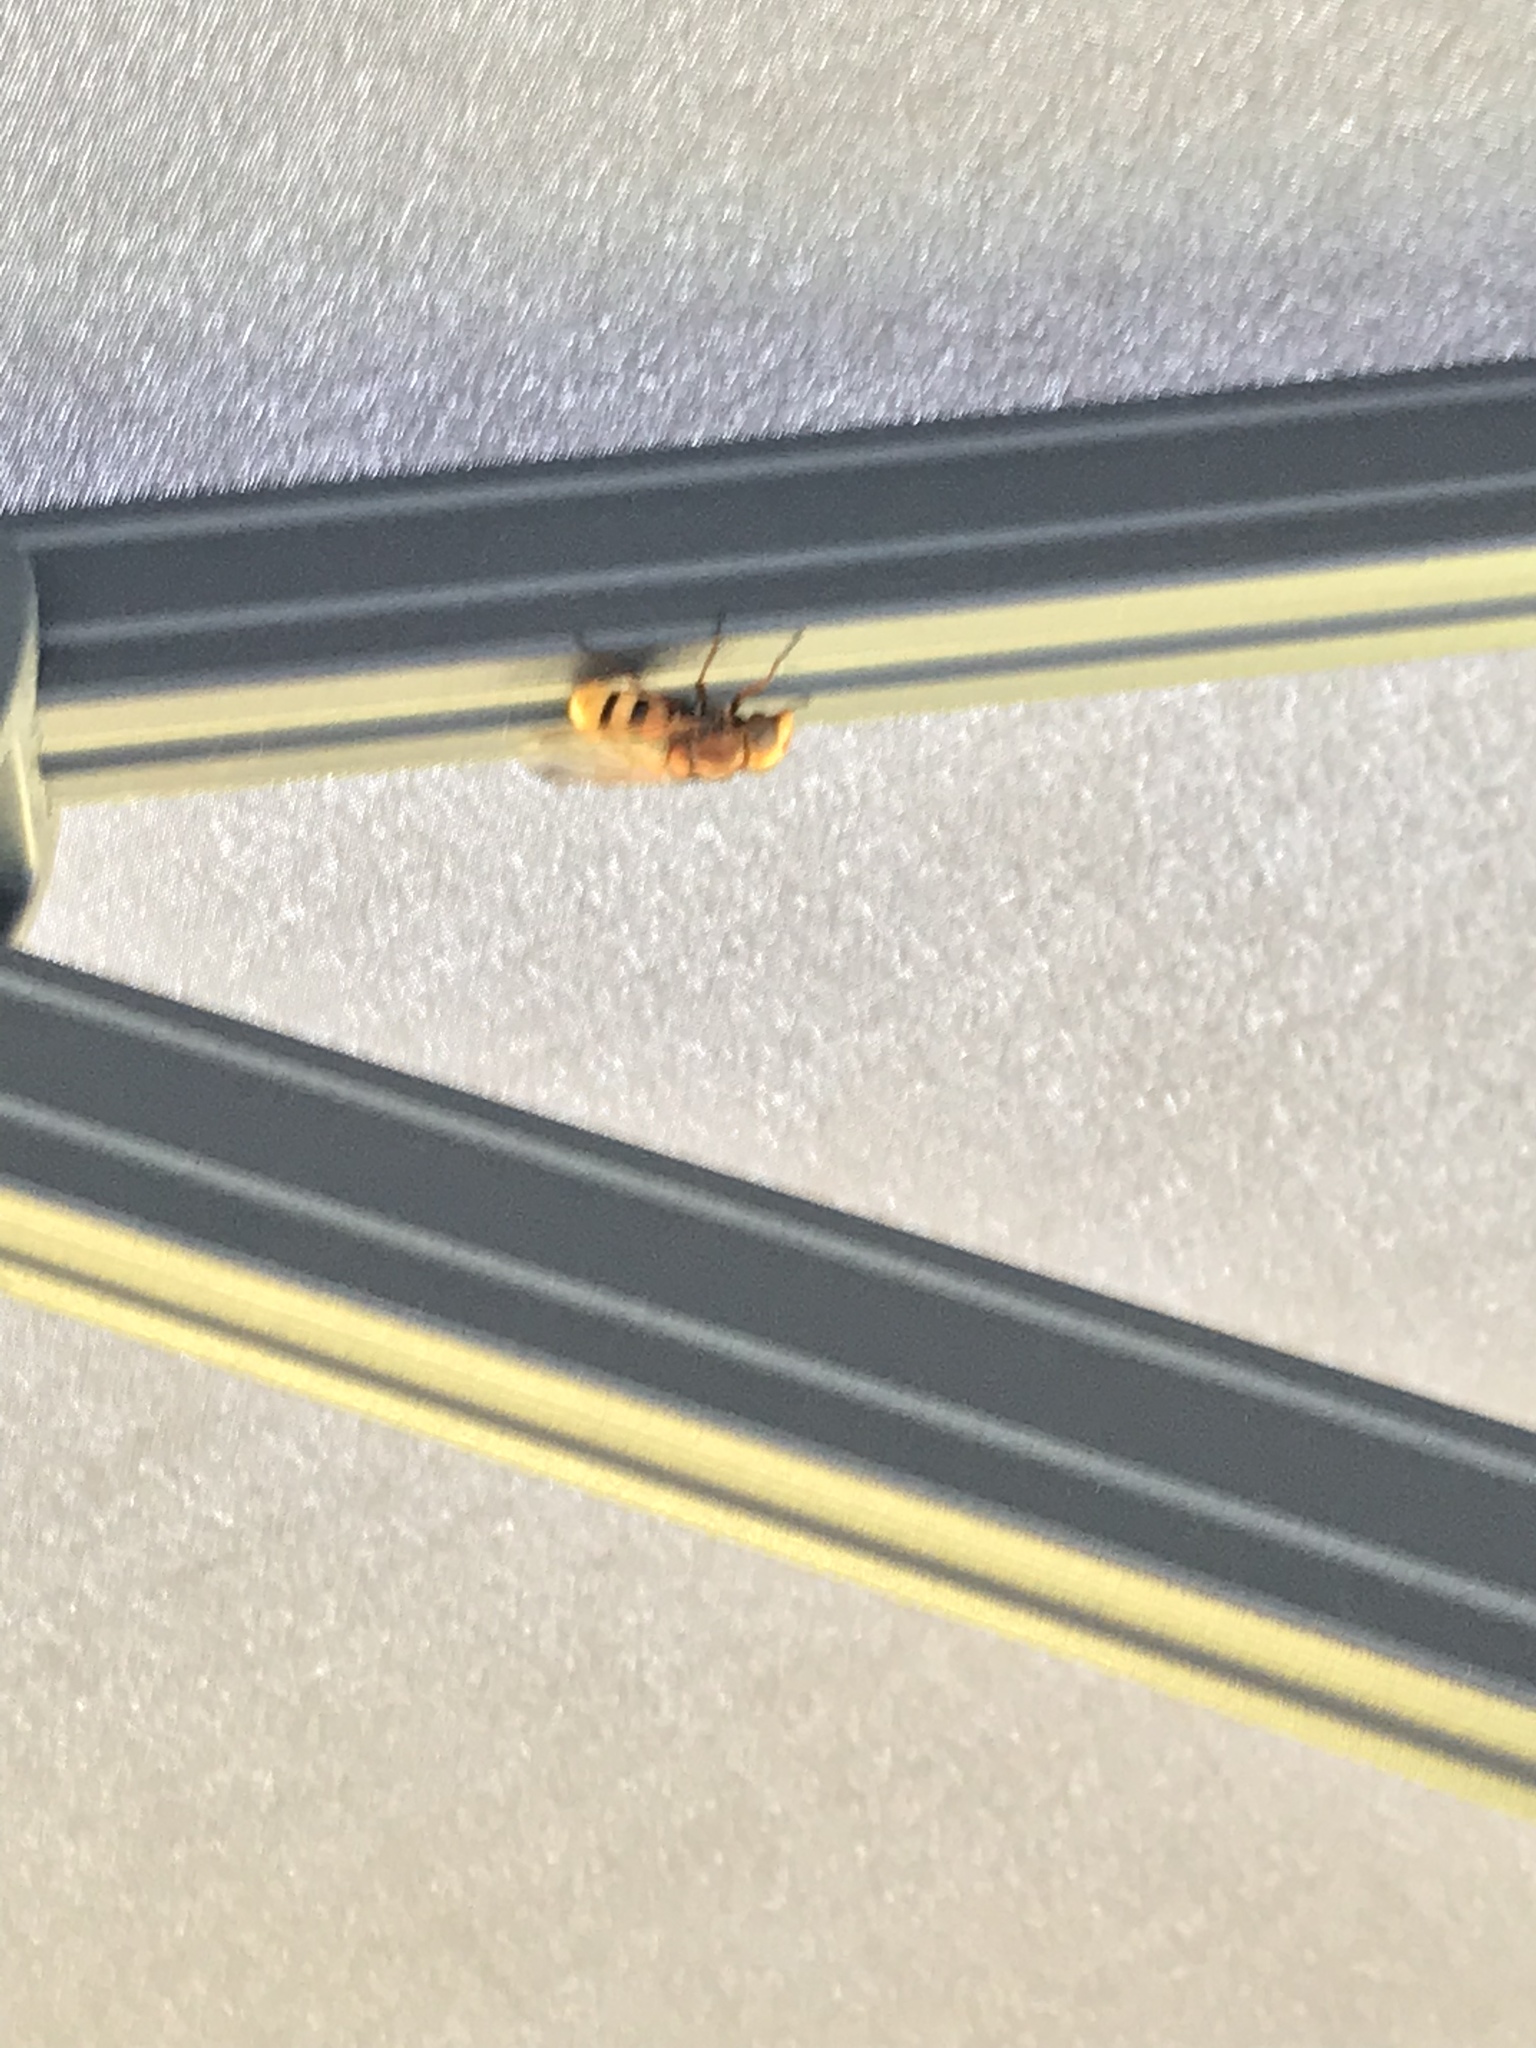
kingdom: Animalia
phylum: Arthropoda
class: Insecta
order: Diptera
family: Syrphidae
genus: Volucella
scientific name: Volucella zonaria
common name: Hornet hoverfly
